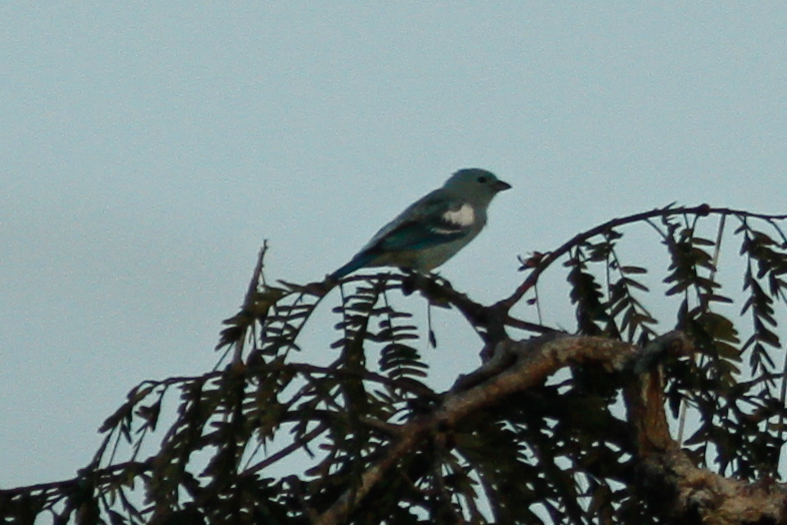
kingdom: Animalia
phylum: Chordata
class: Aves
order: Passeriformes
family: Thraupidae
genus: Thraupis
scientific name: Thraupis episcopus
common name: Blue-grey tanager
